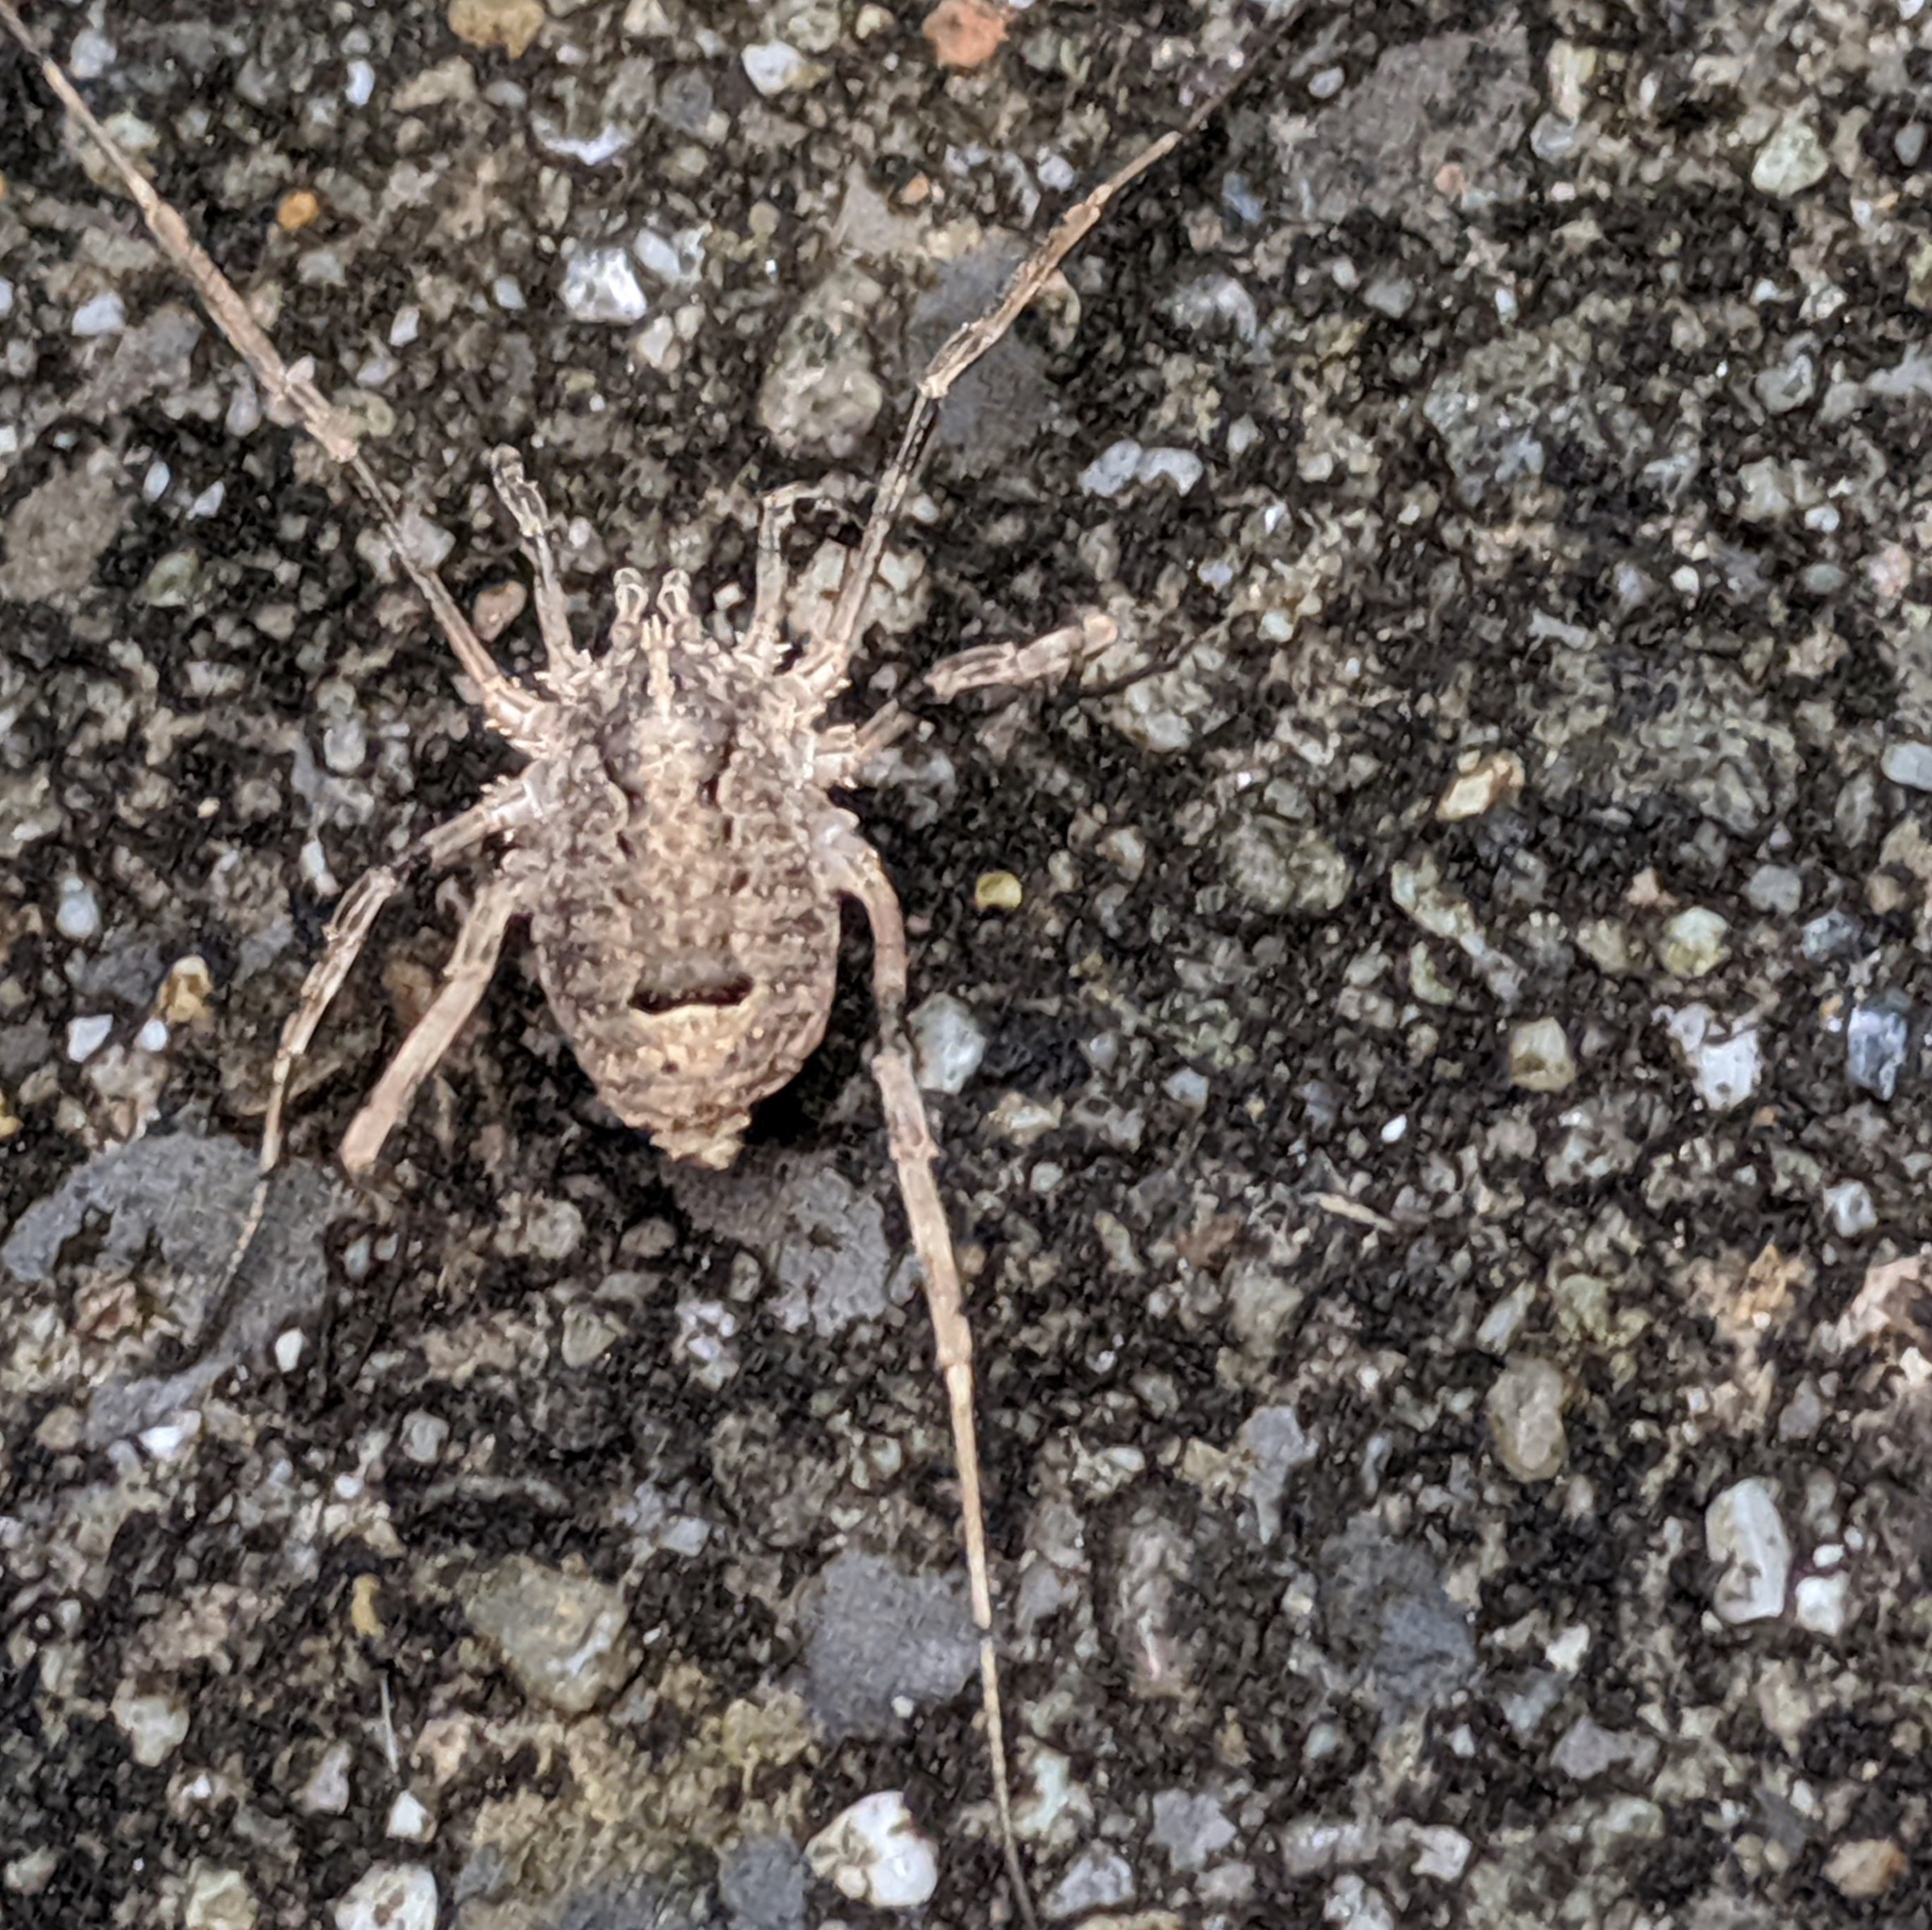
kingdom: Animalia
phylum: Arthropoda
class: Arachnida
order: Opiliones
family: Phalangiidae
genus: Odiellus
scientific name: Odiellus spinosus
